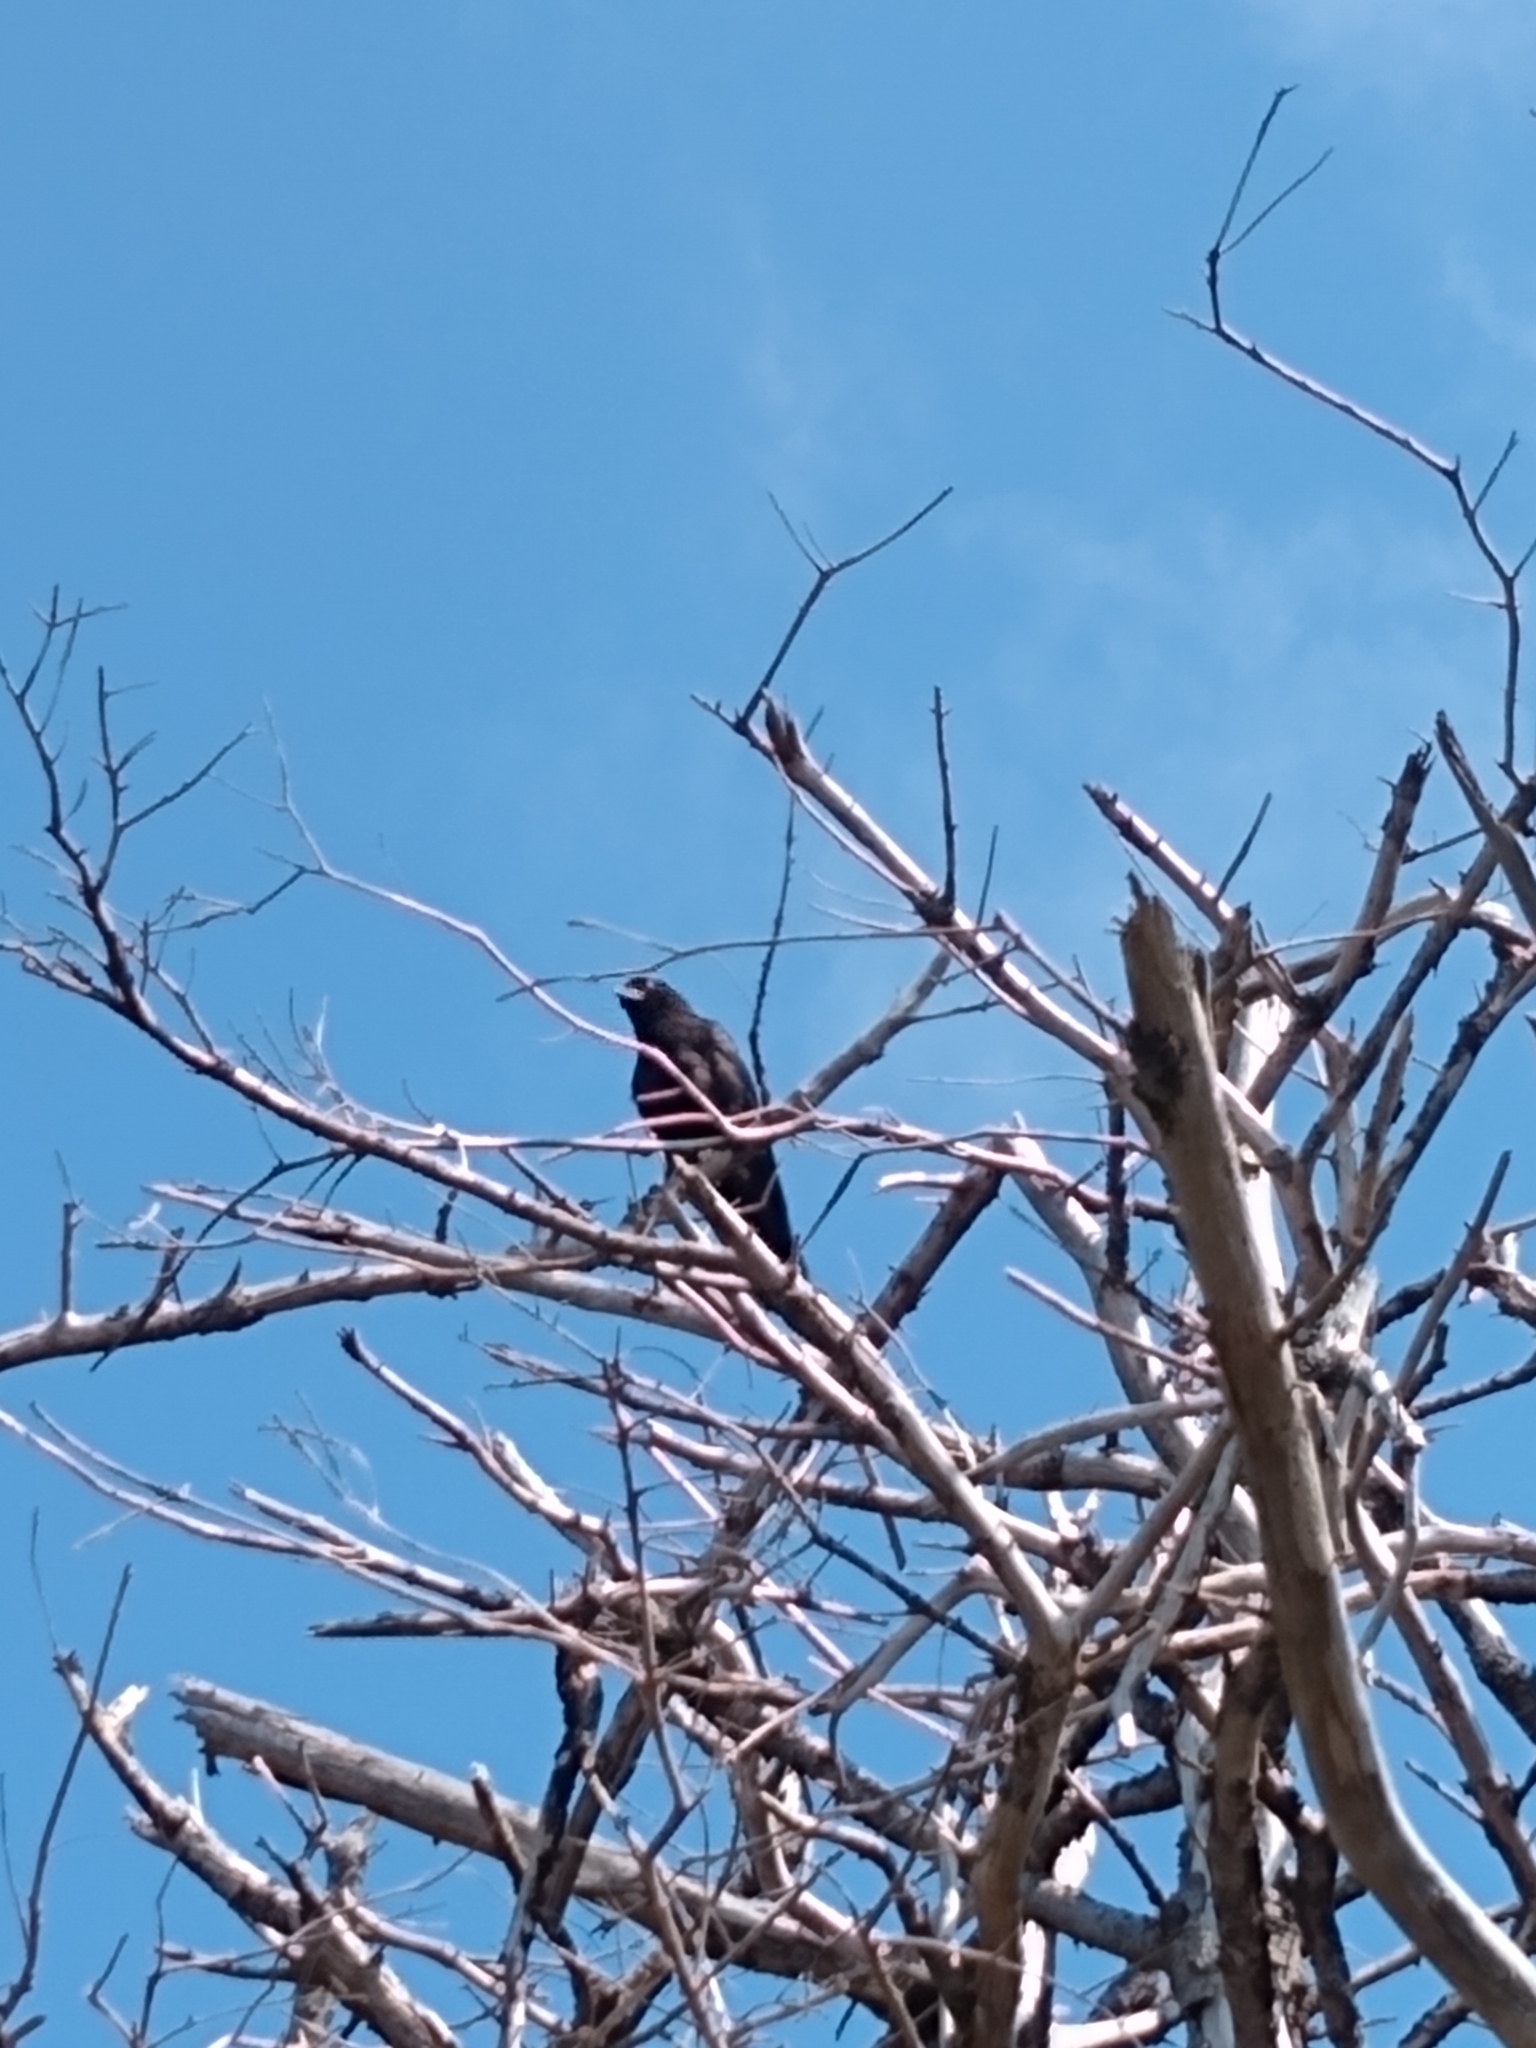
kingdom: Animalia
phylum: Chordata
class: Aves
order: Passeriformes
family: Corvidae
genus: Corvus
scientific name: Corvus brachyrhynchos
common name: American crow
